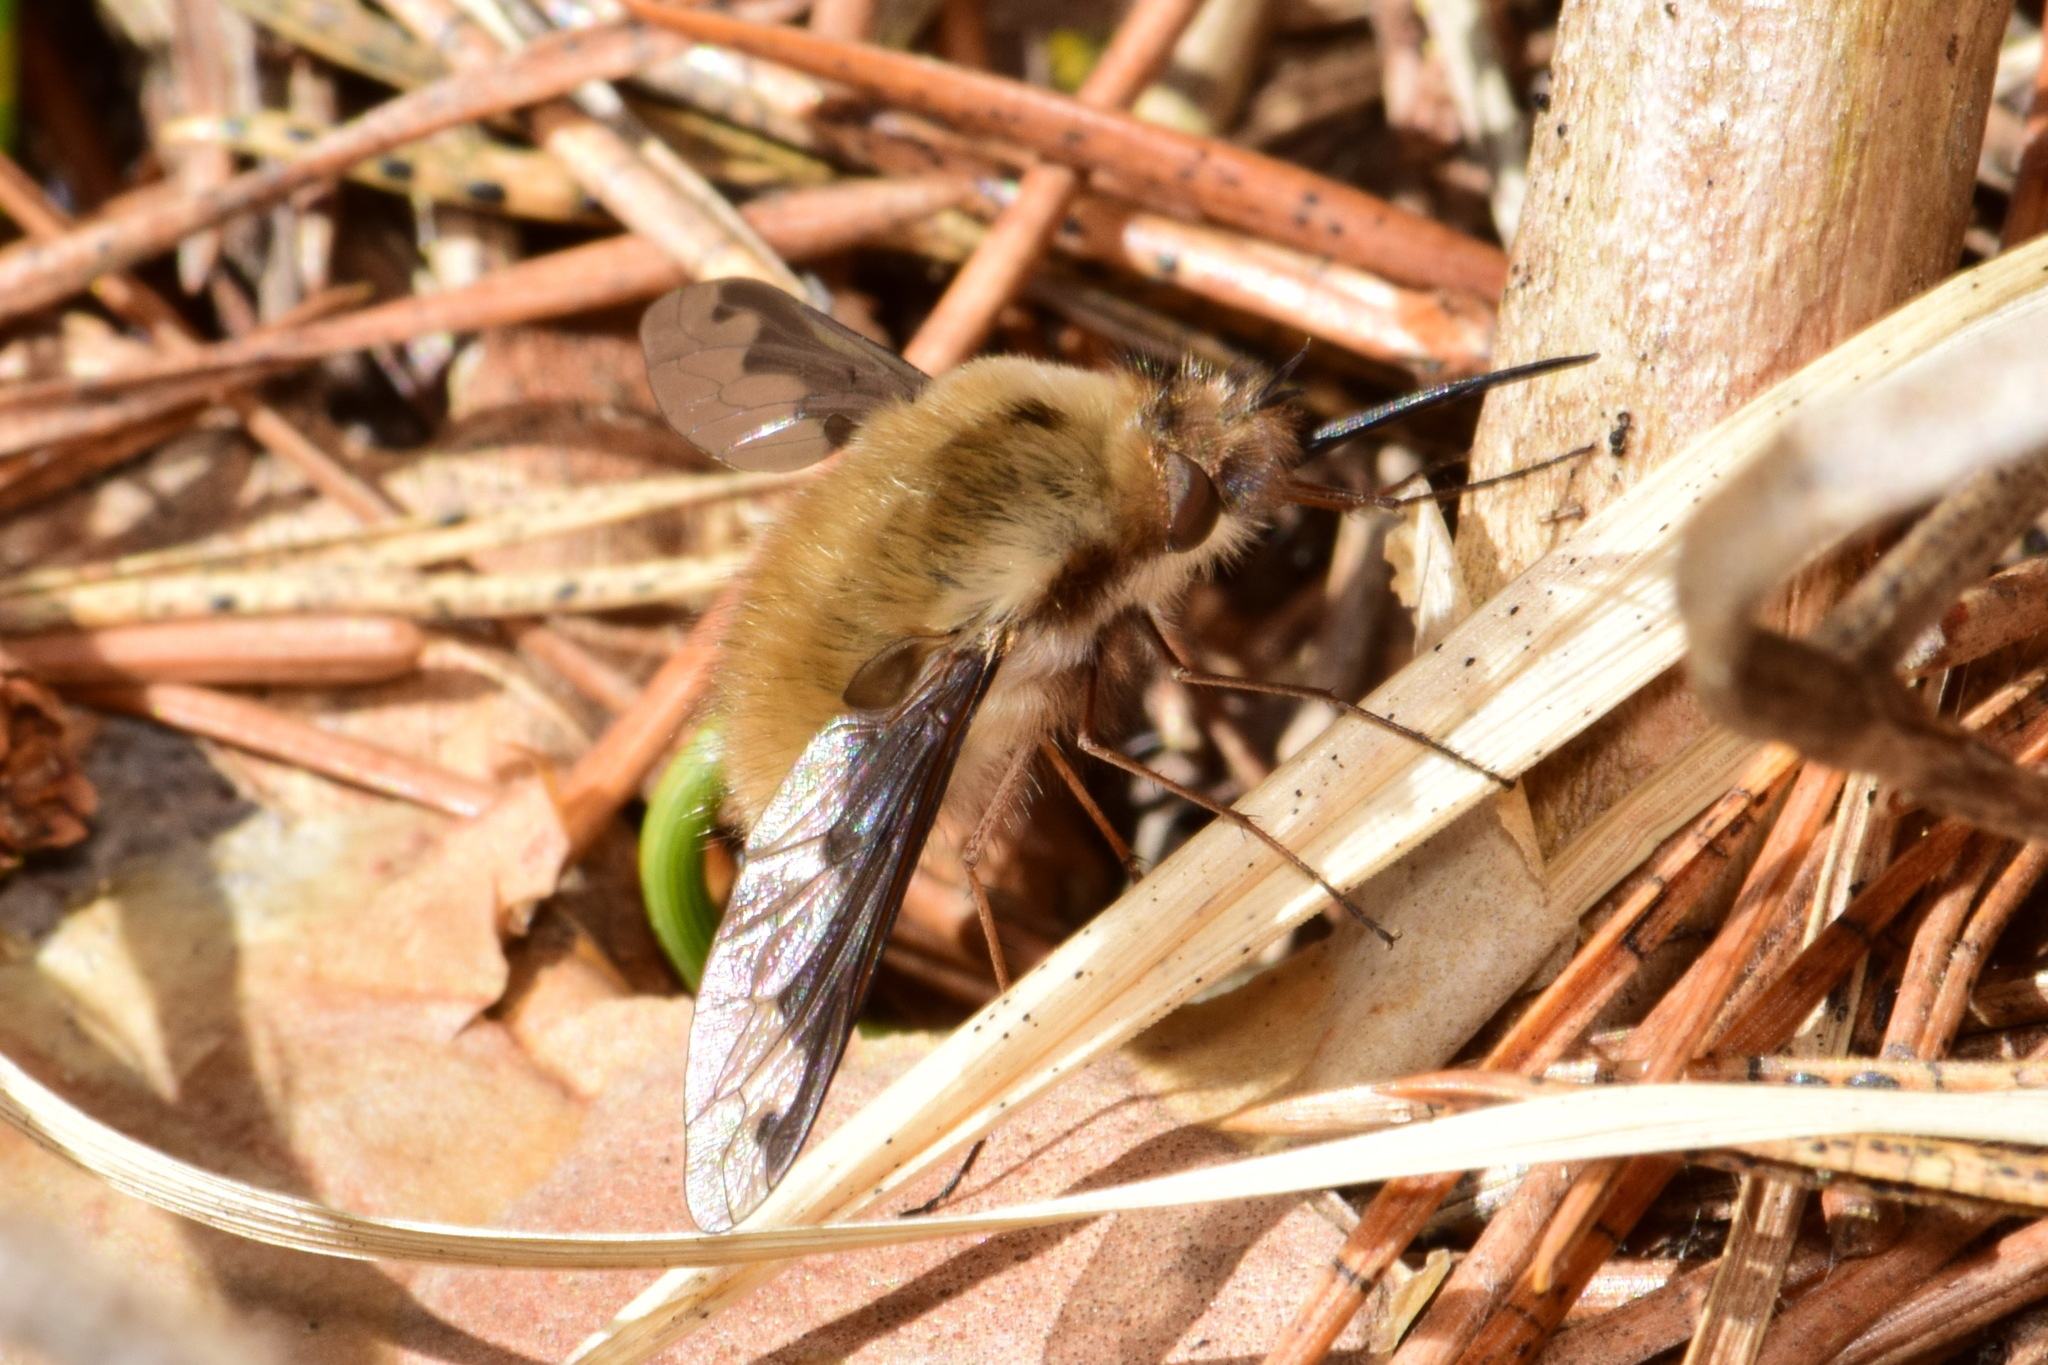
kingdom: Animalia
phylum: Arthropoda
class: Insecta
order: Diptera
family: Bombyliidae
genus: Bombylius
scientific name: Bombylius major
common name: Bee fly
